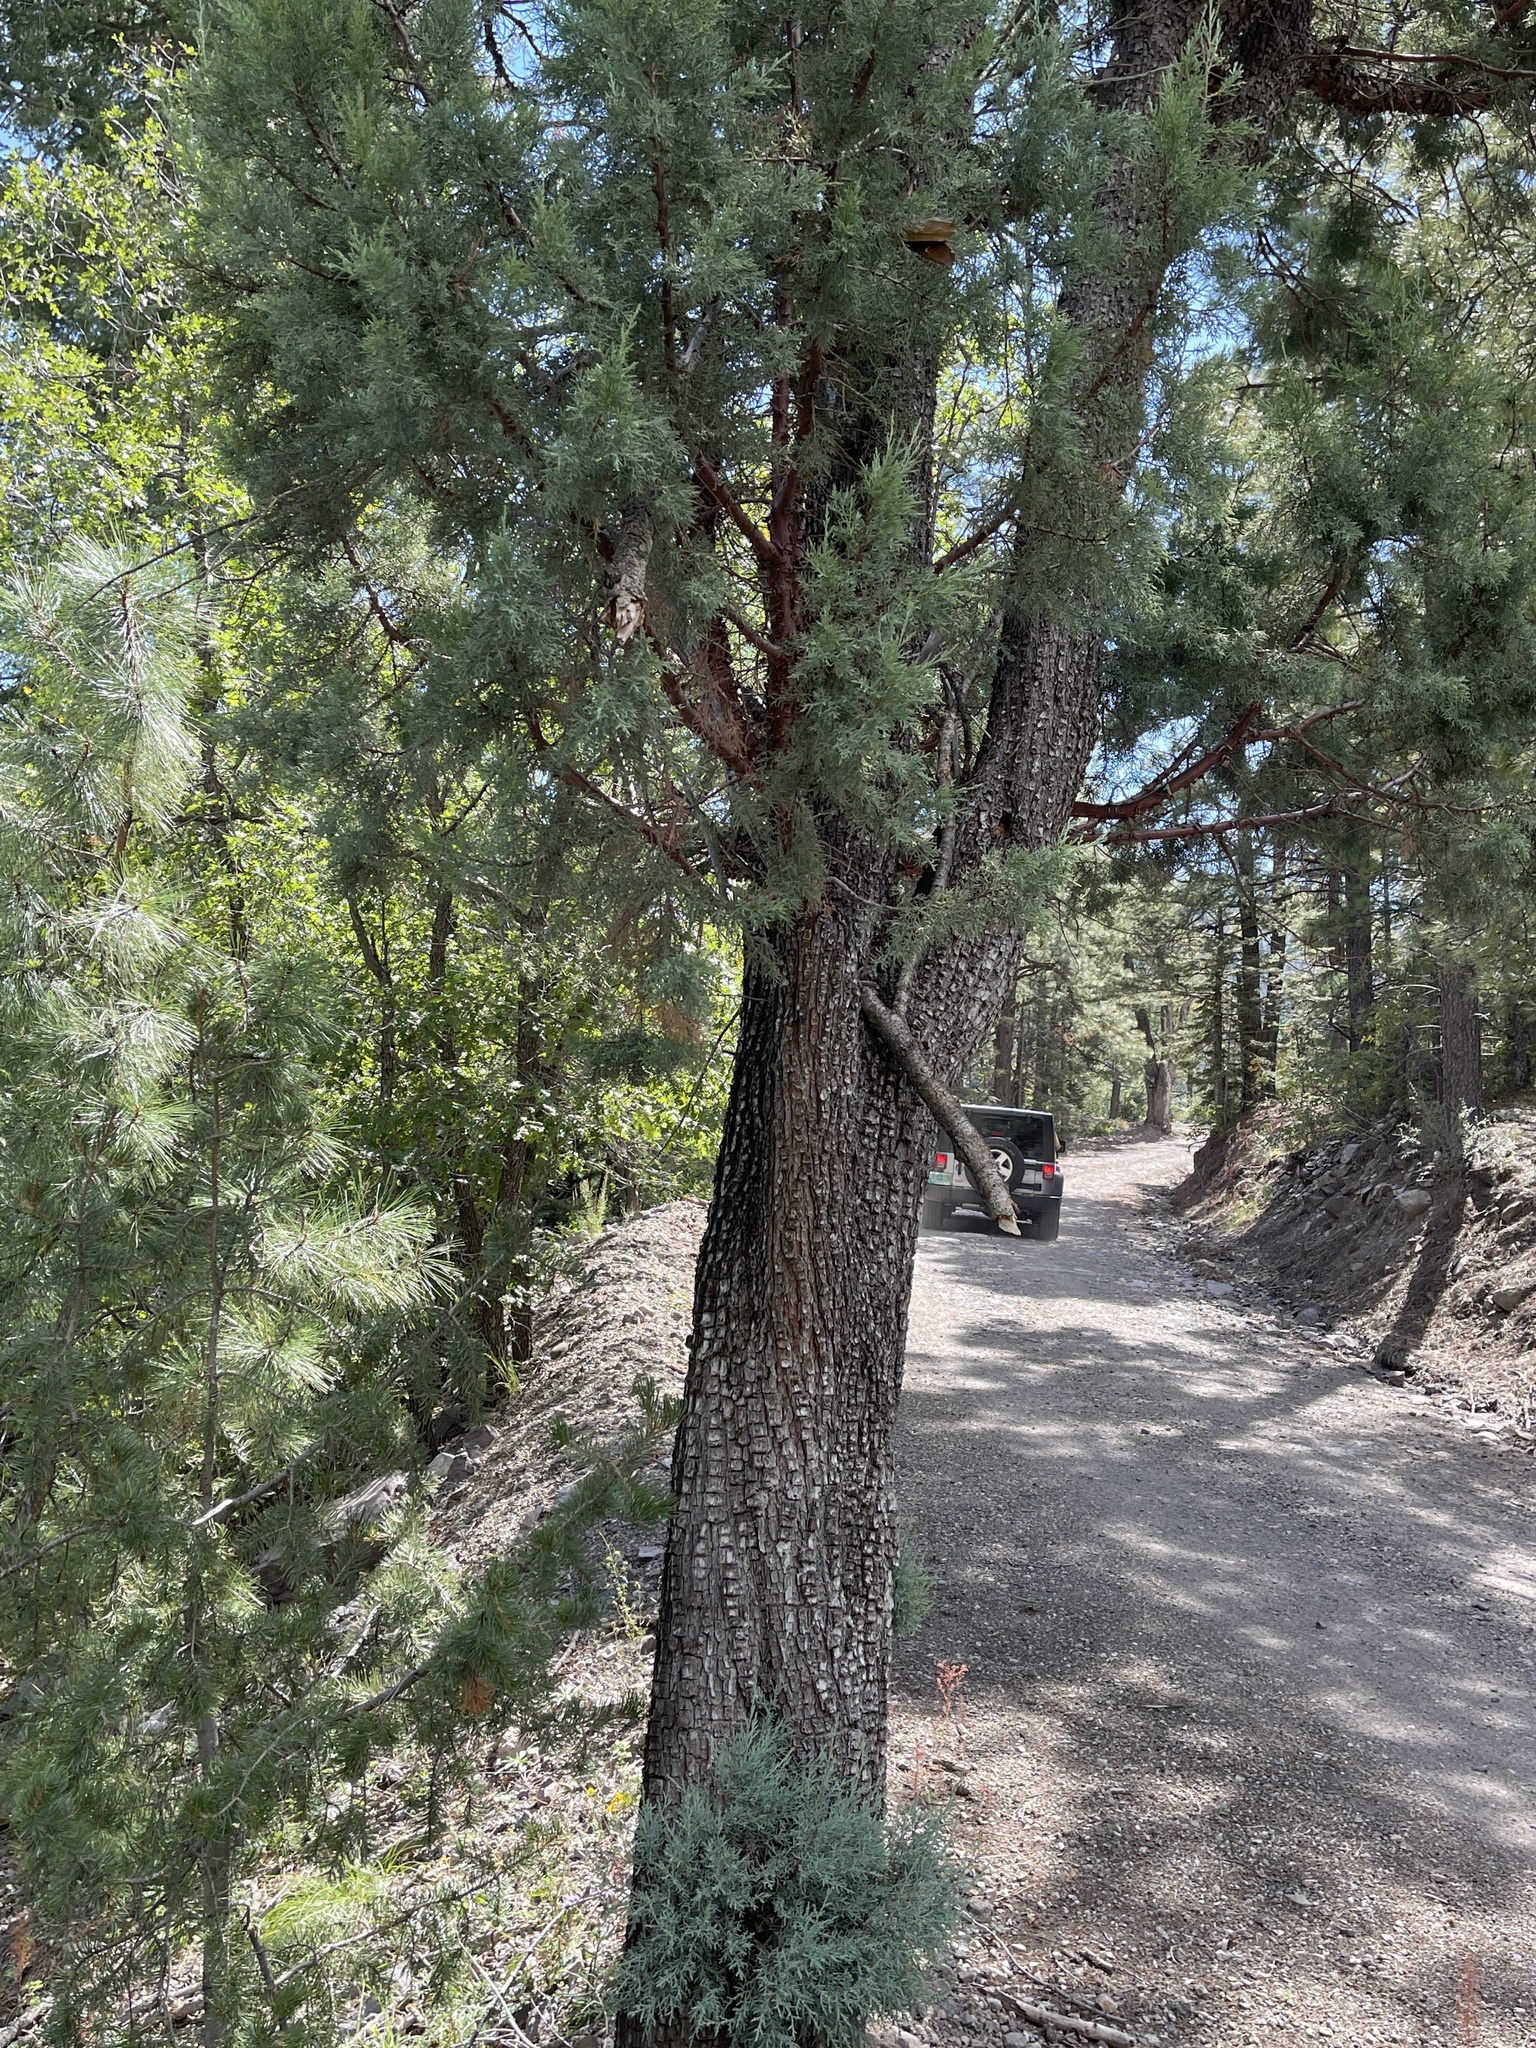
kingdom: Plantae
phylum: Tracheophyta
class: Pinopsida
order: Pinales
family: Cupressaceae
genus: Juniperus
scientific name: Juniperus deppeana
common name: Alligator juniper
